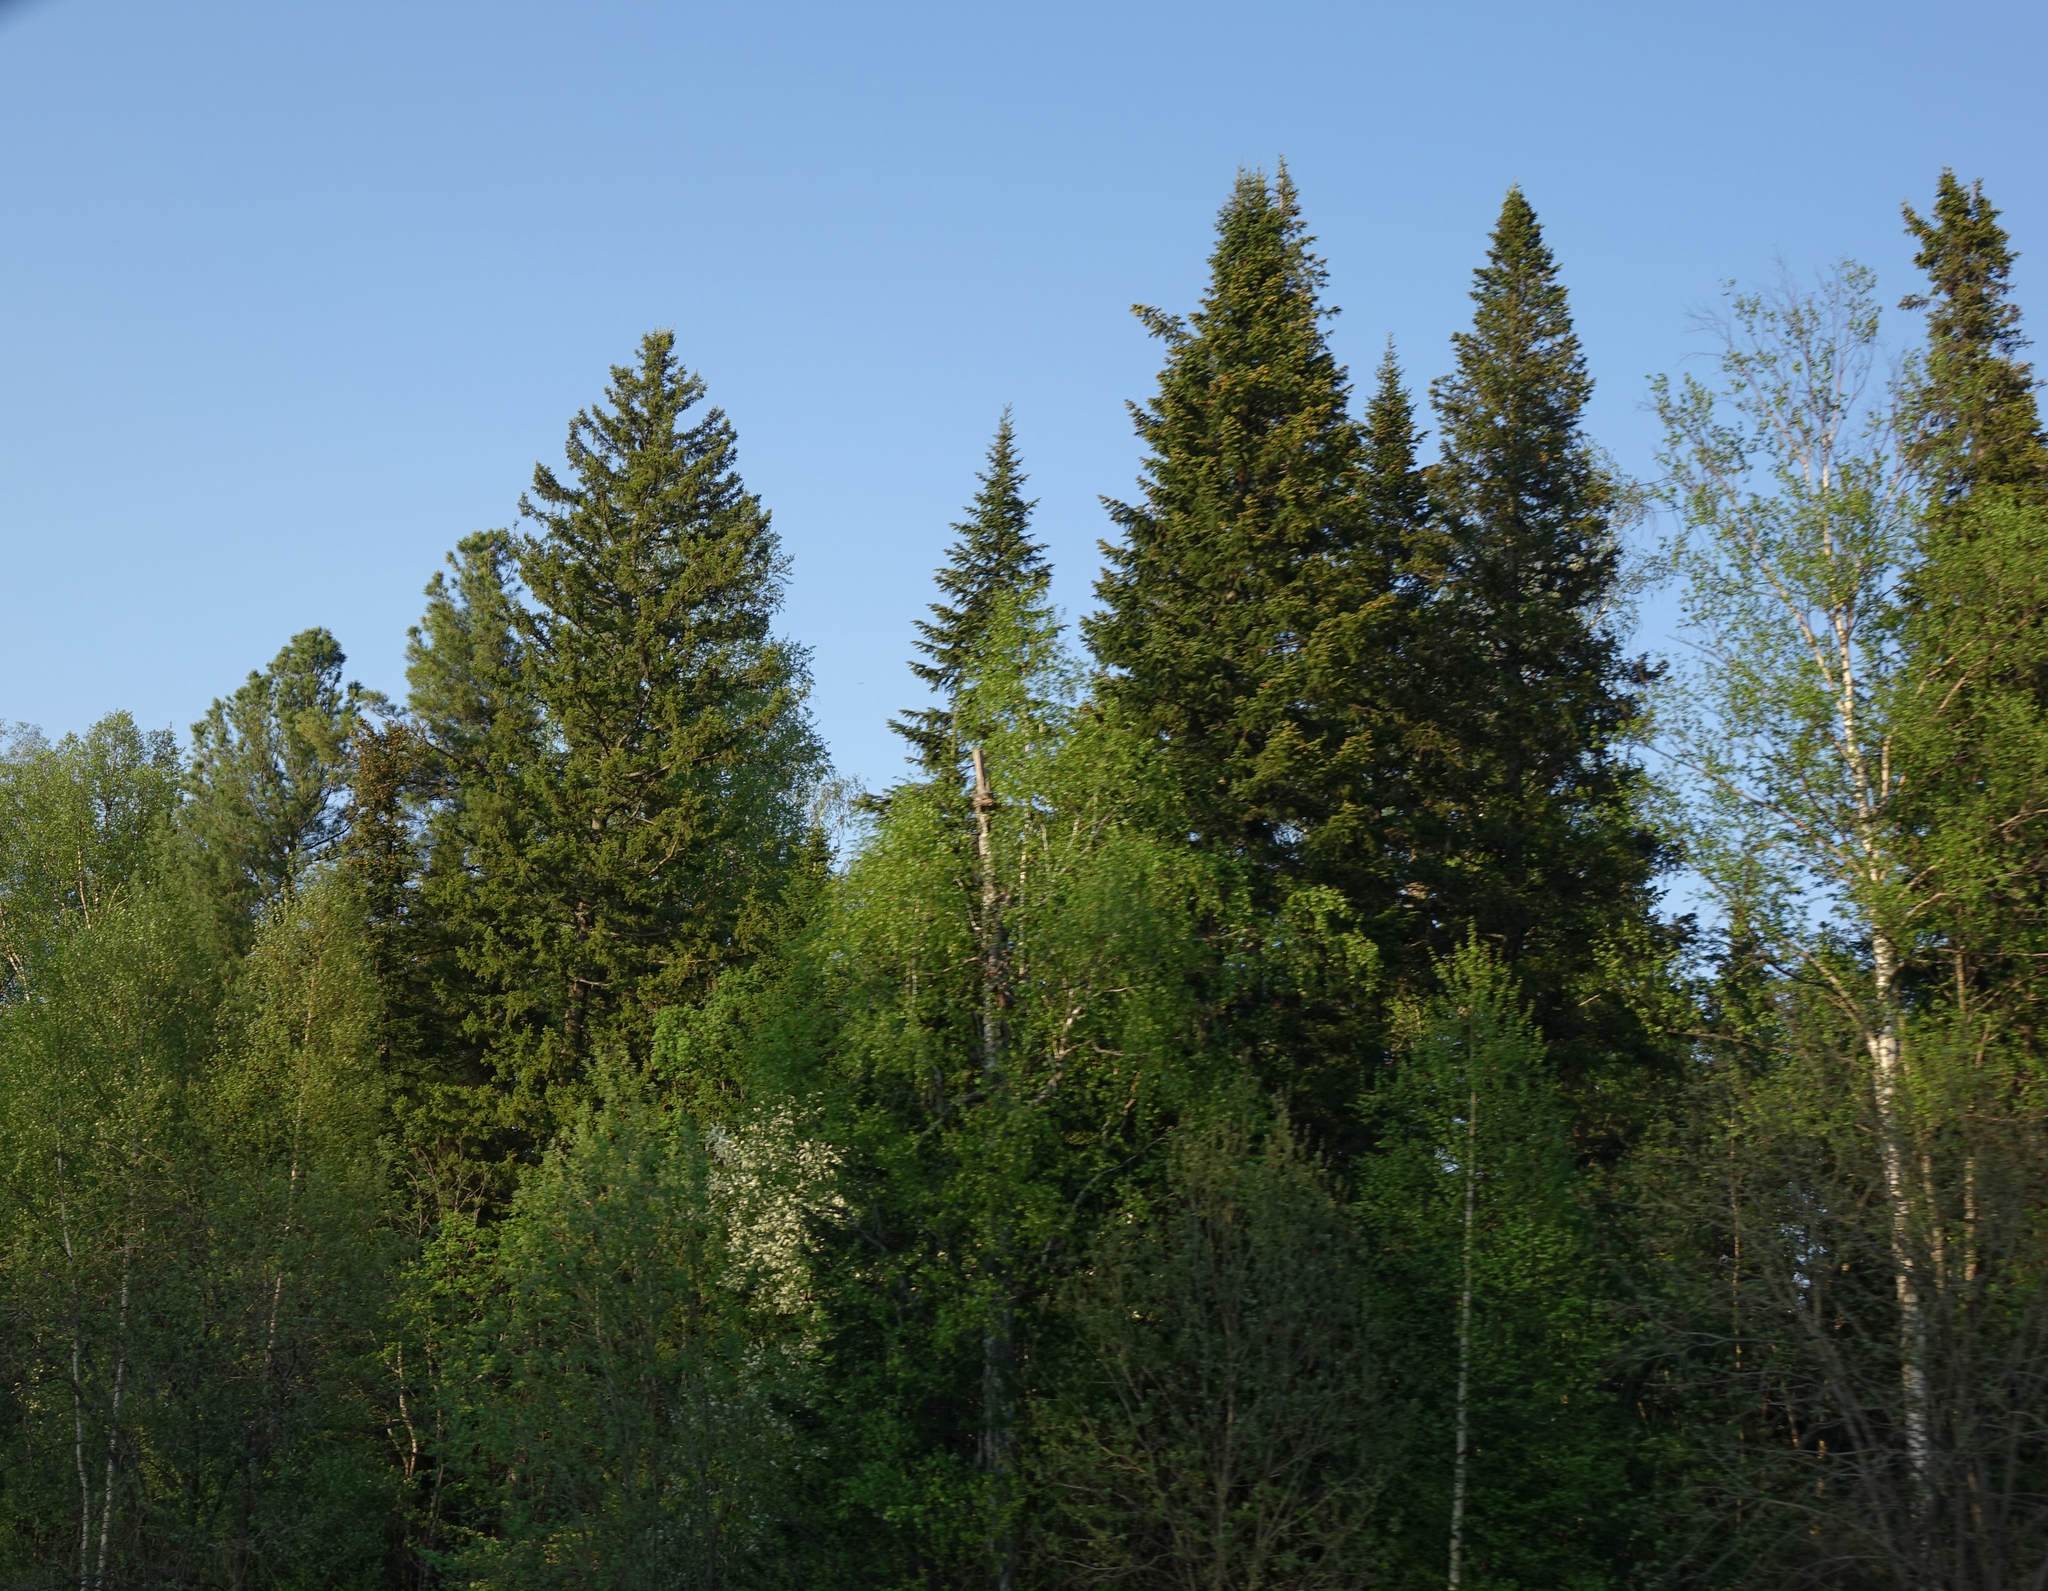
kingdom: Plantae
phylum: Tracheophyta
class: Pinopsida
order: Pinales
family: Pinaceae
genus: Abies
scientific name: Abies sibirica
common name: Siberian fir
